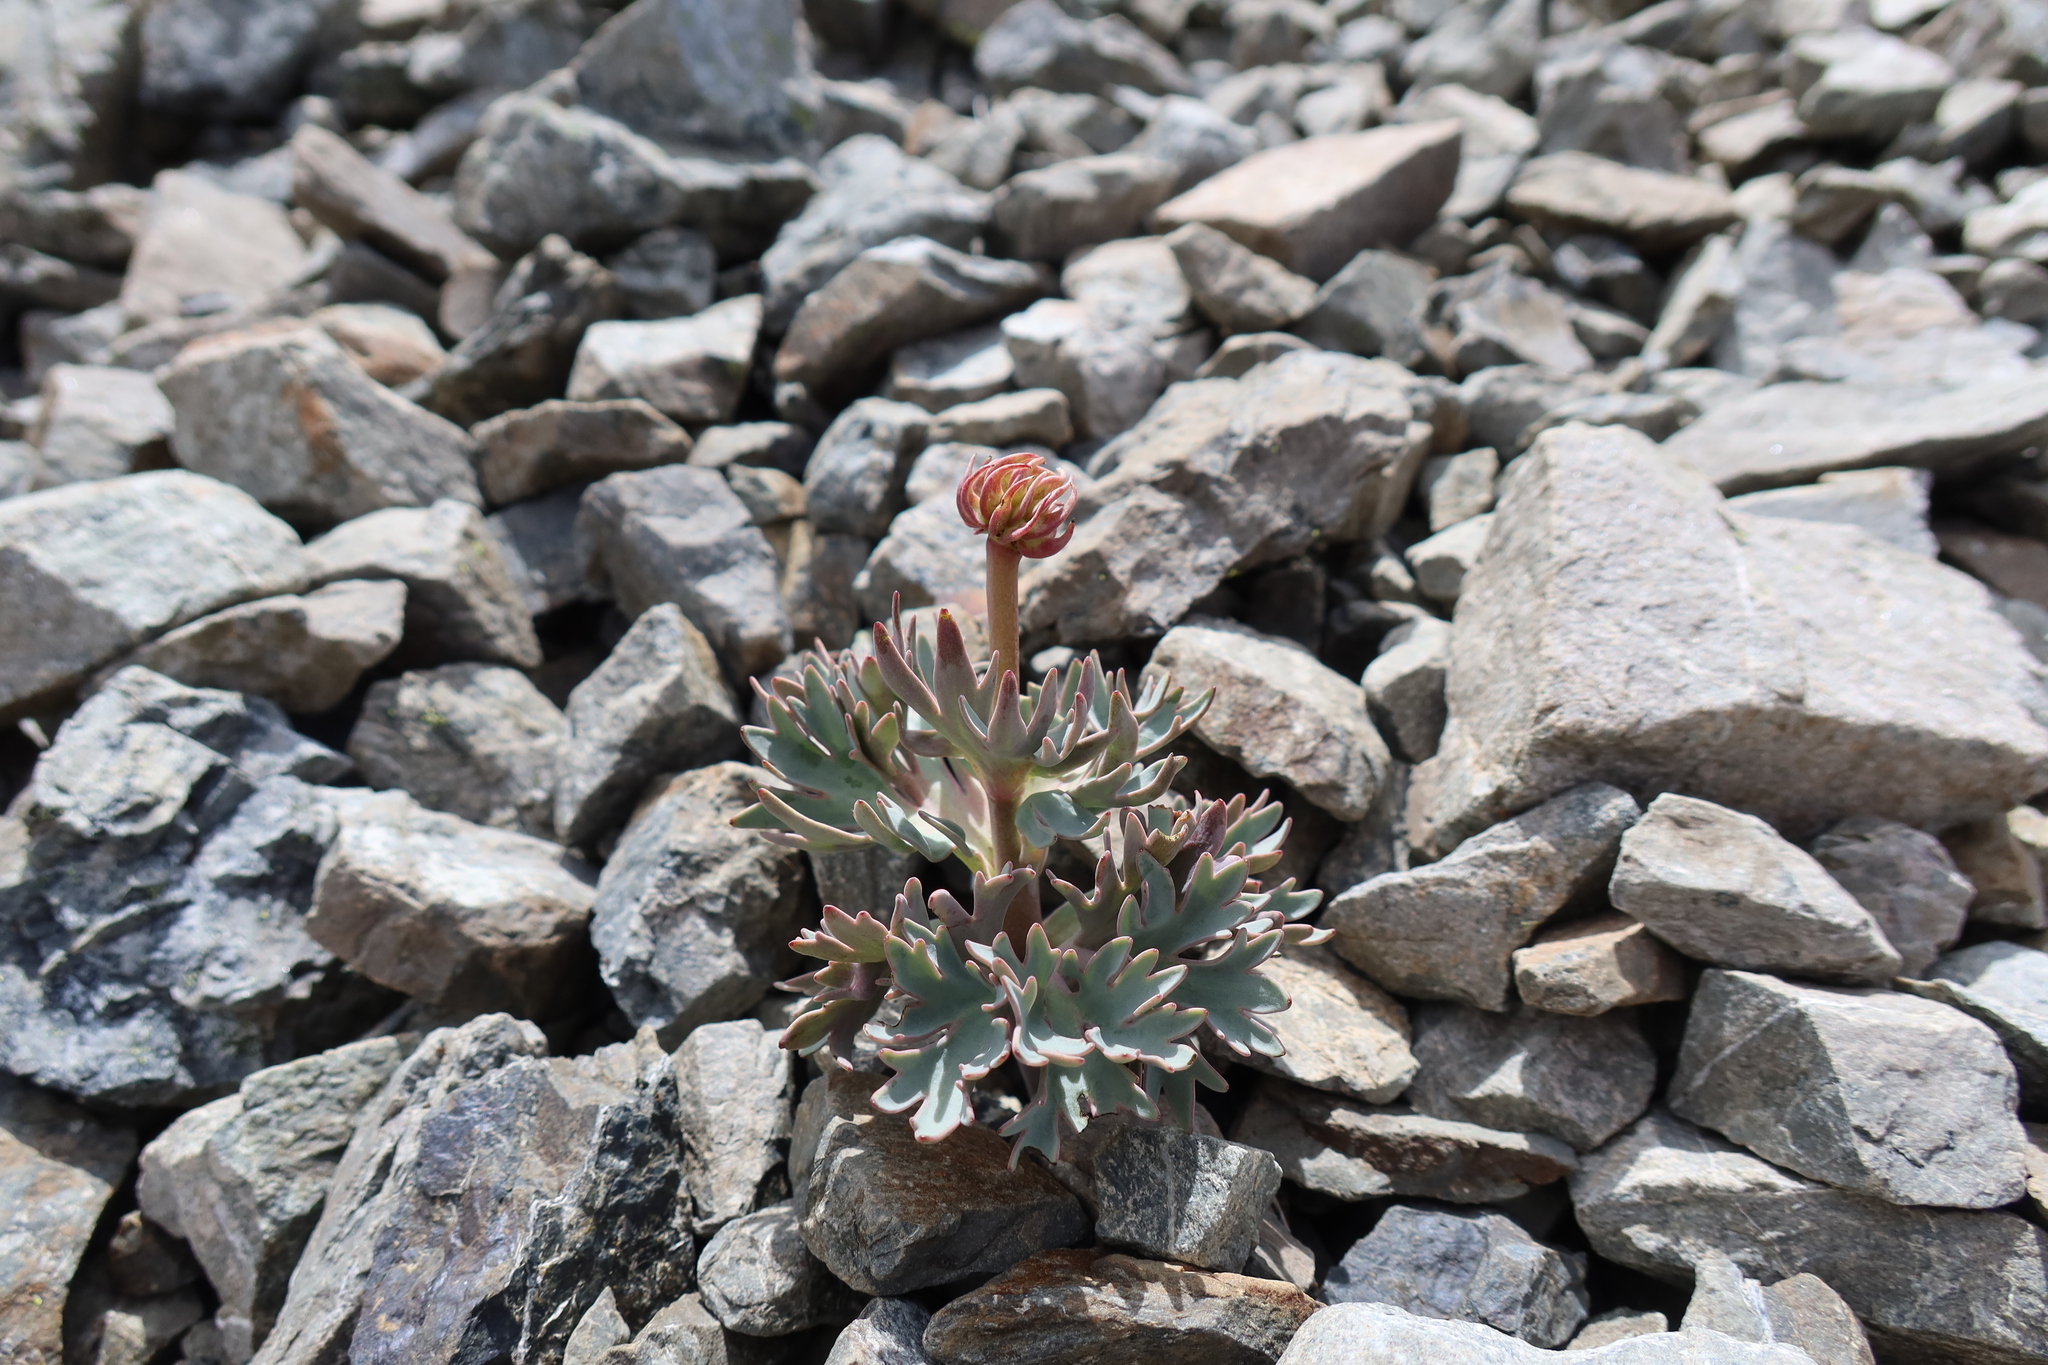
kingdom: Plantae
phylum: Tracheophyta
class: Magnoliopsida
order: Ranunculales
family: Ranunculaceae
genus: Ranunculus
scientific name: Ranunculus haastii
